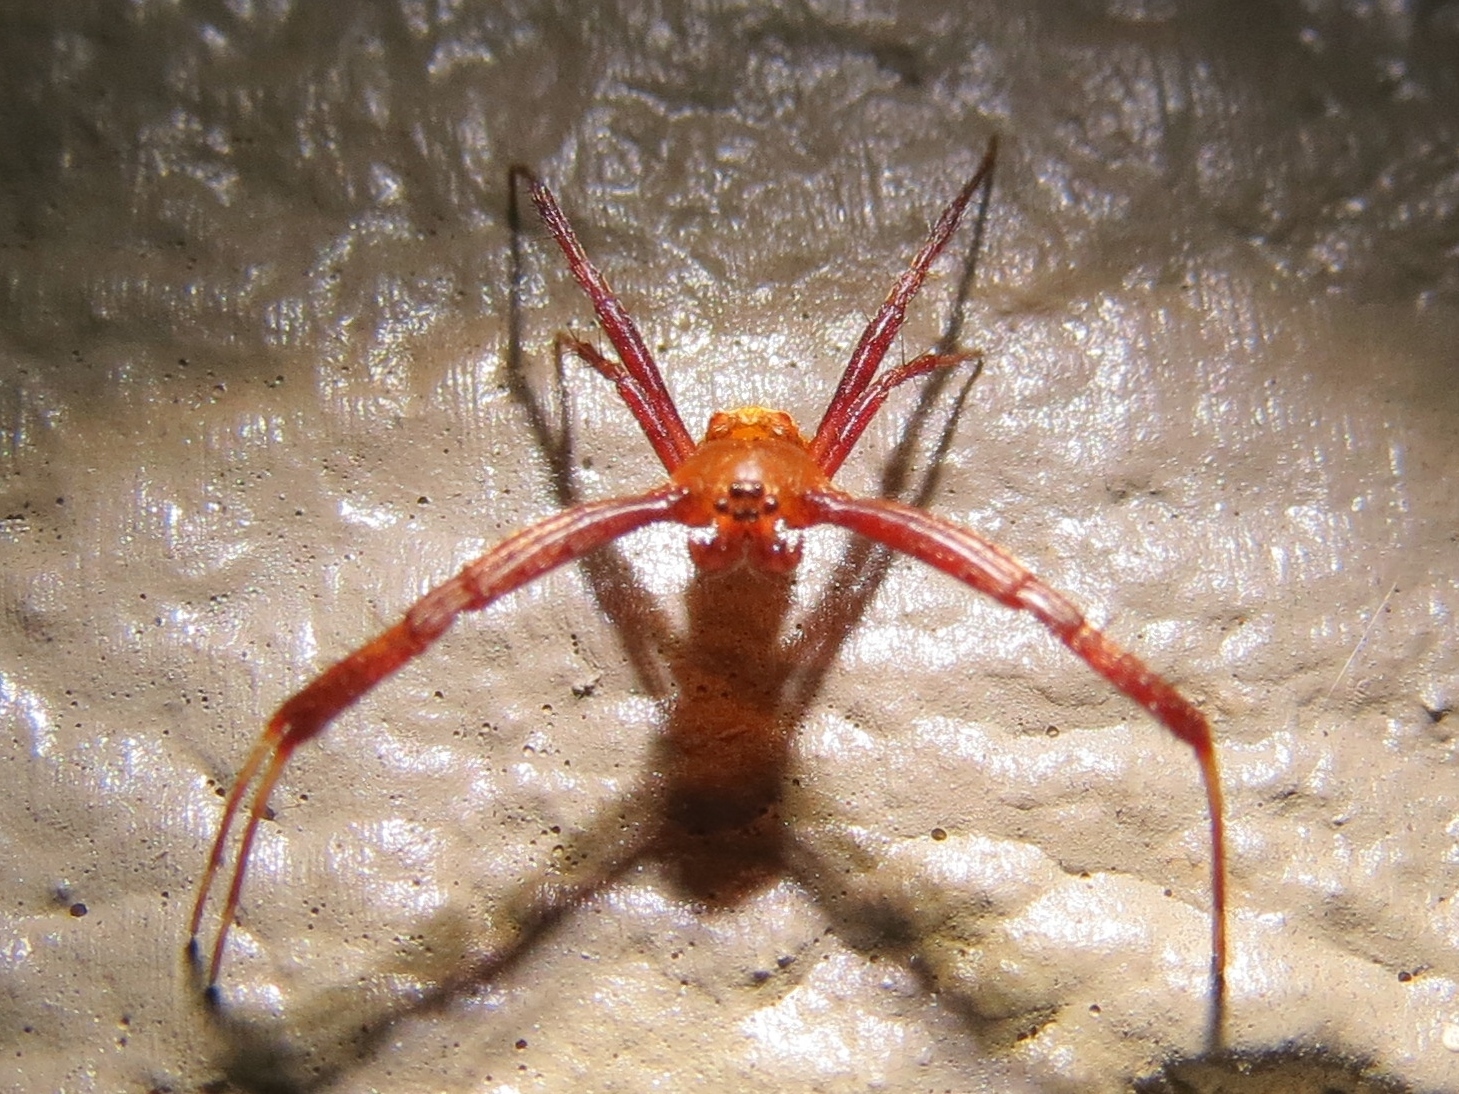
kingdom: Animalia
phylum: Arthropoda
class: Arachnida
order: Araneae
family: Araneidae
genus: Gea
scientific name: Gea heptagon
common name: Orb weavers
